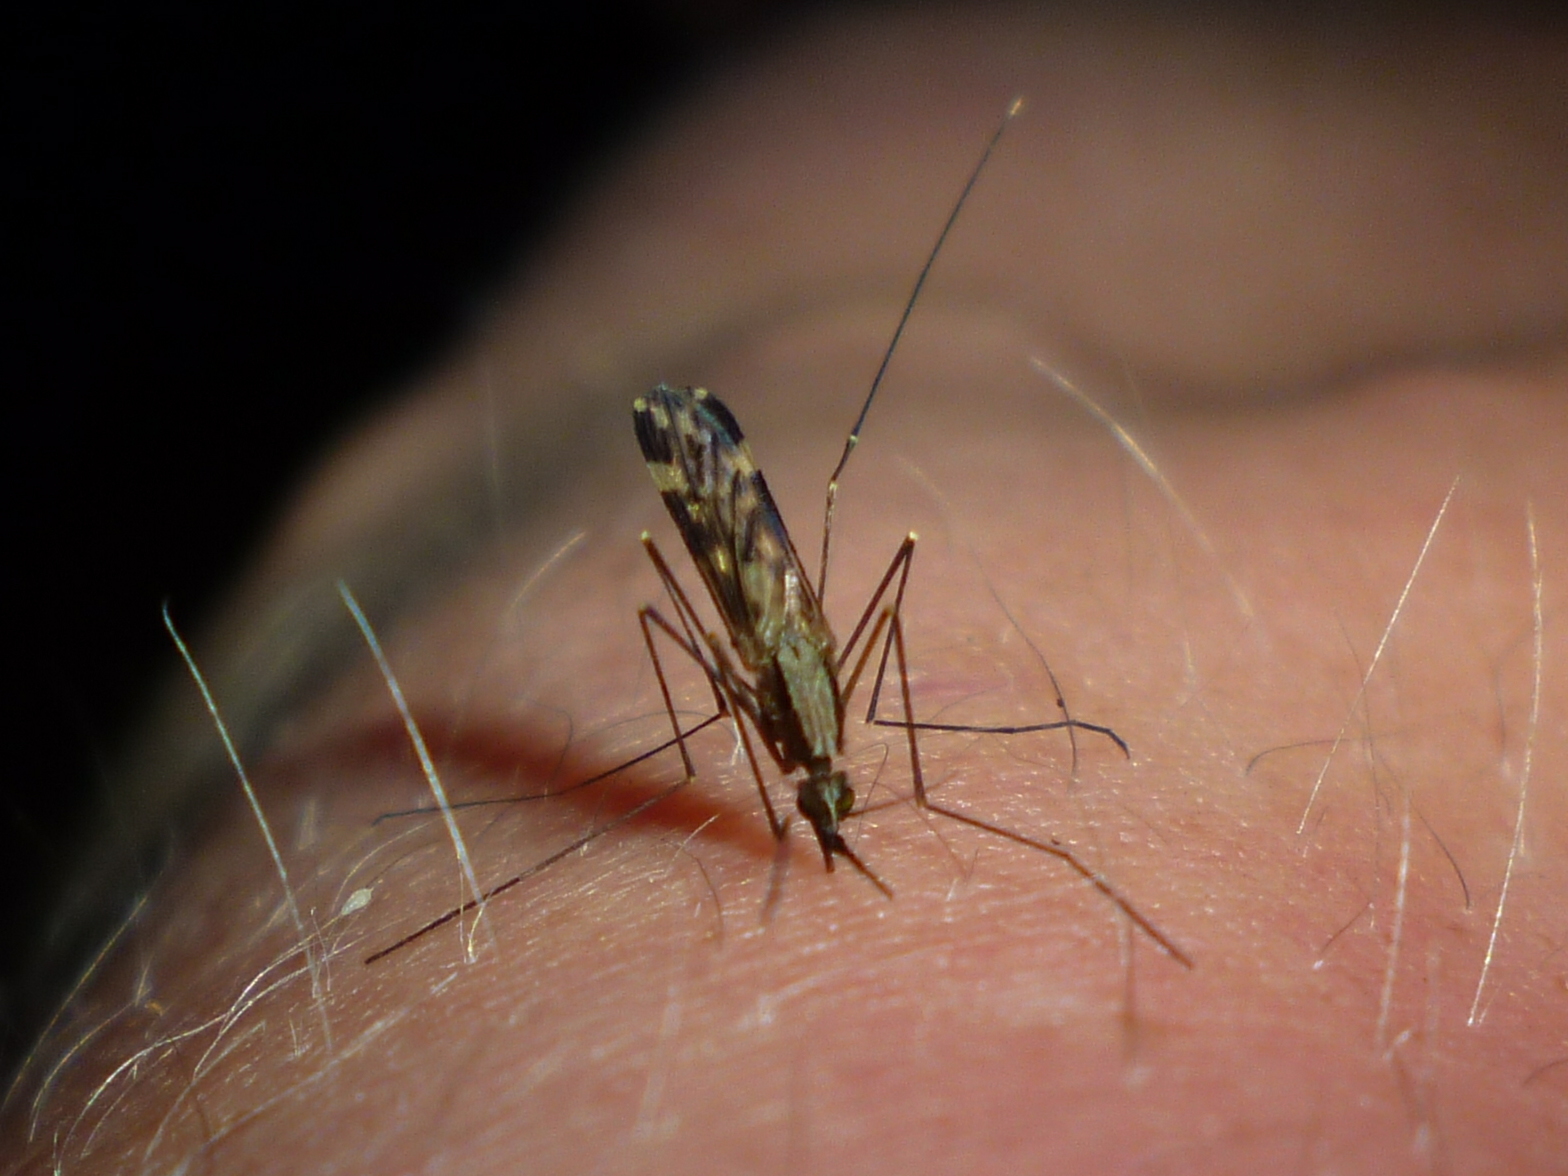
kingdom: Animalia
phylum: Arthropoda
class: Insecta
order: Diptera
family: Culicidae
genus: Anopheles
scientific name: Anopheles punctipennis
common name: Woodland malaria mosquito
